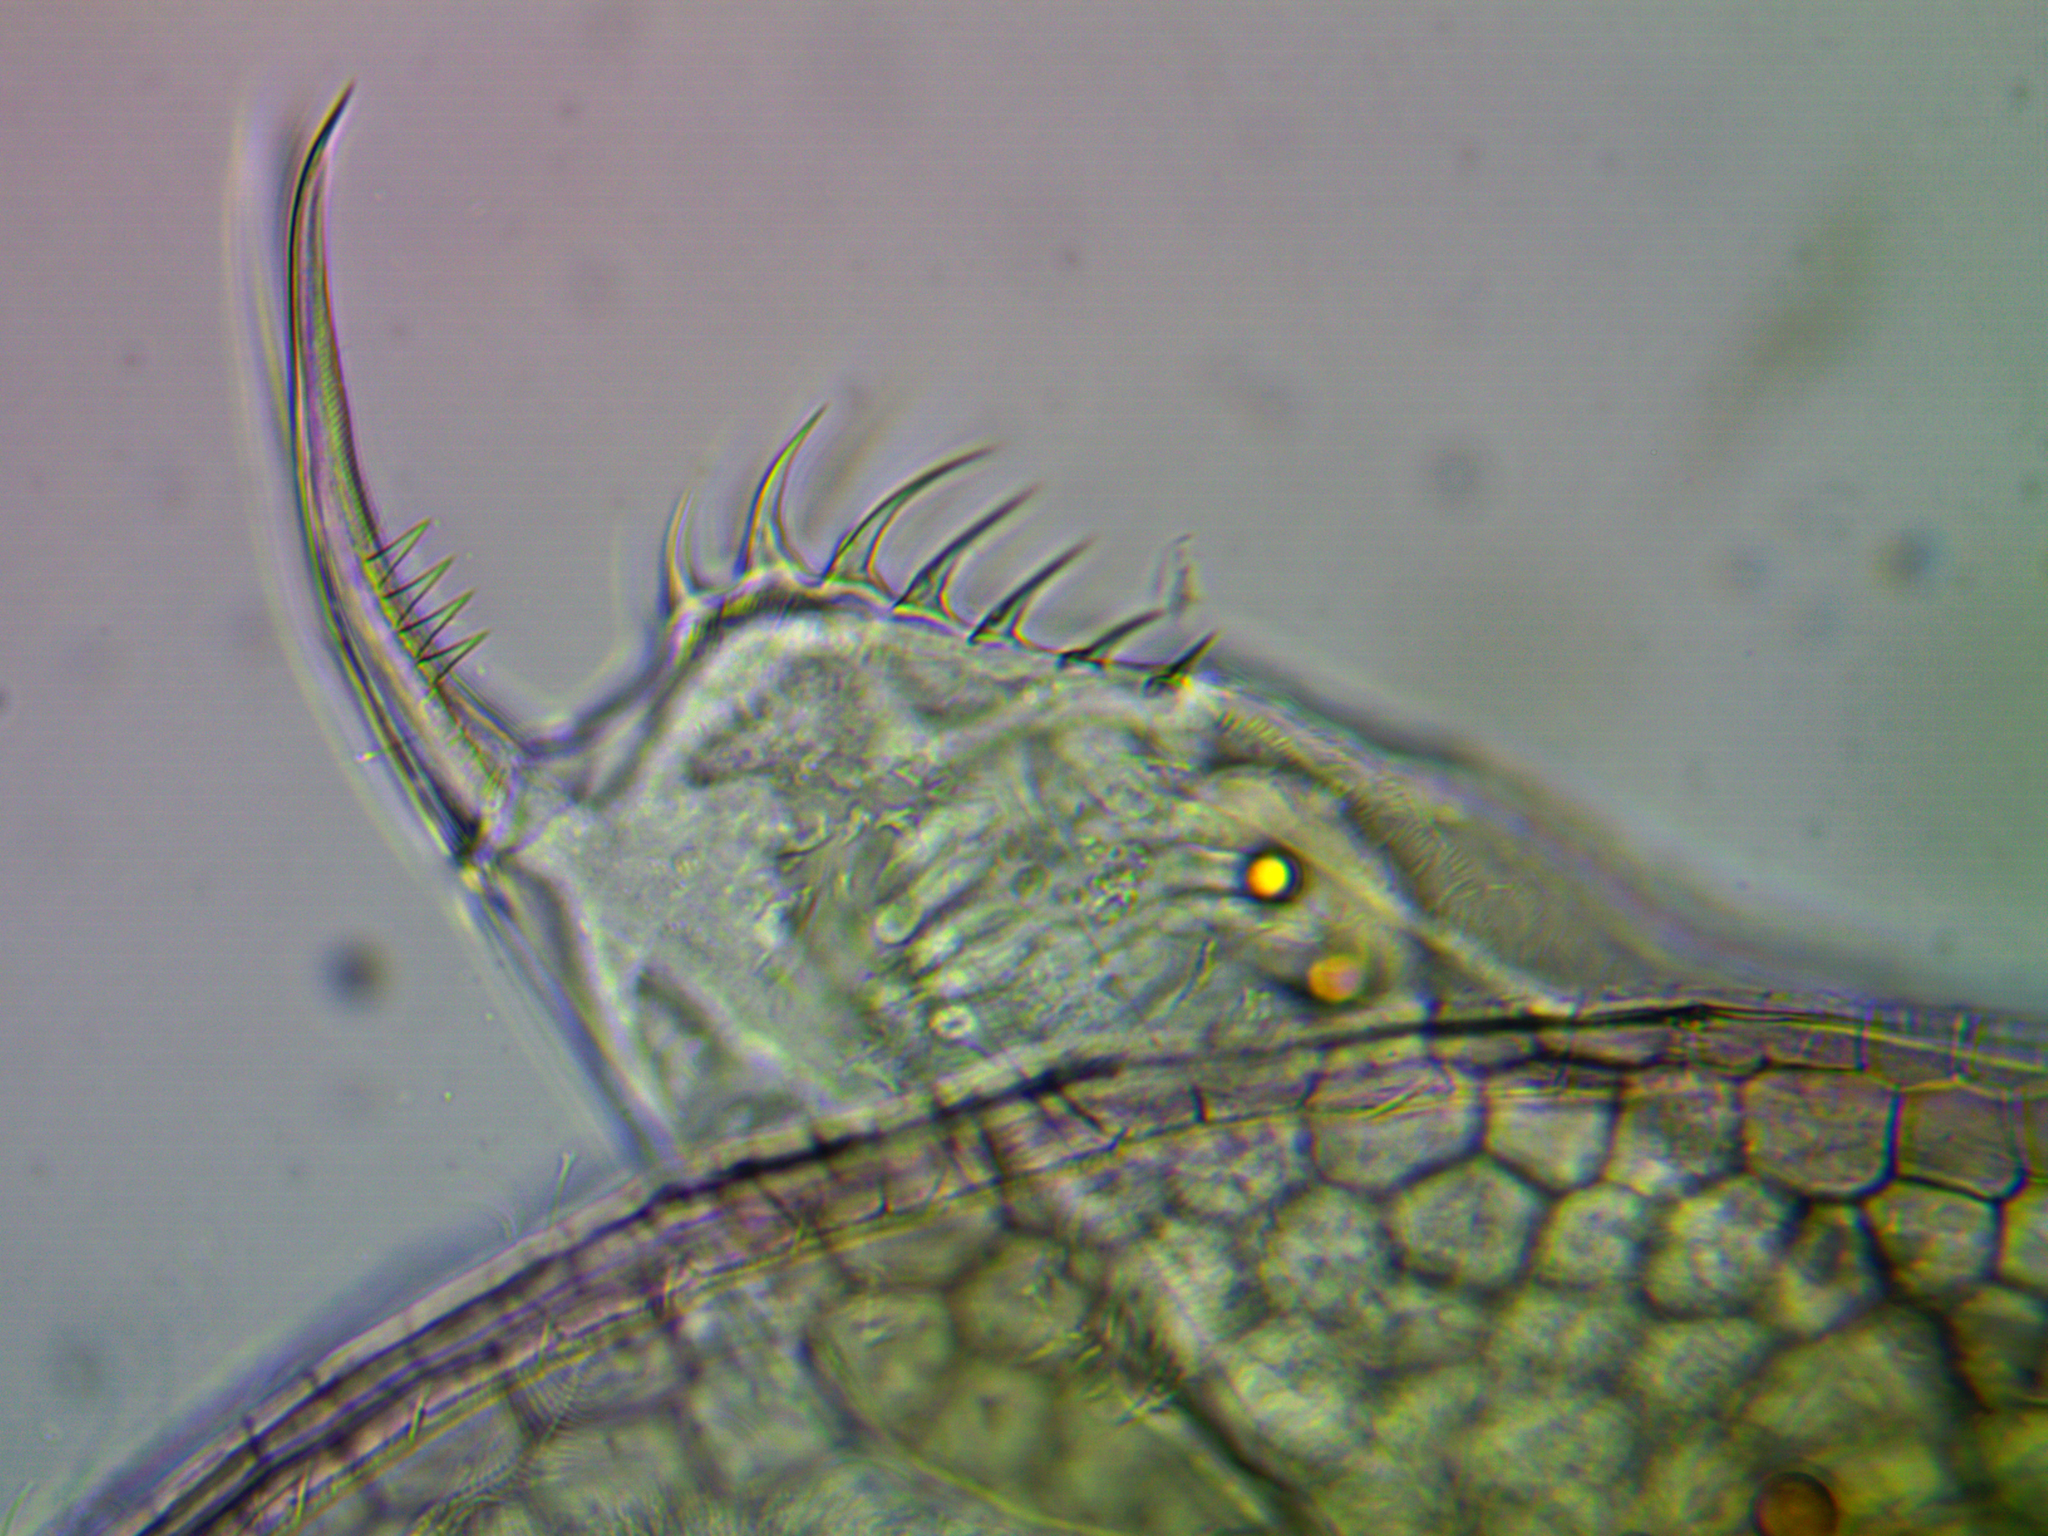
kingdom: Animalia
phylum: Arthropoda
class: Branchiopoda
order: Diplostraca
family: Daphniidae
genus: Ceriodaphnia
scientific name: Ceriodaphnia reticulata
